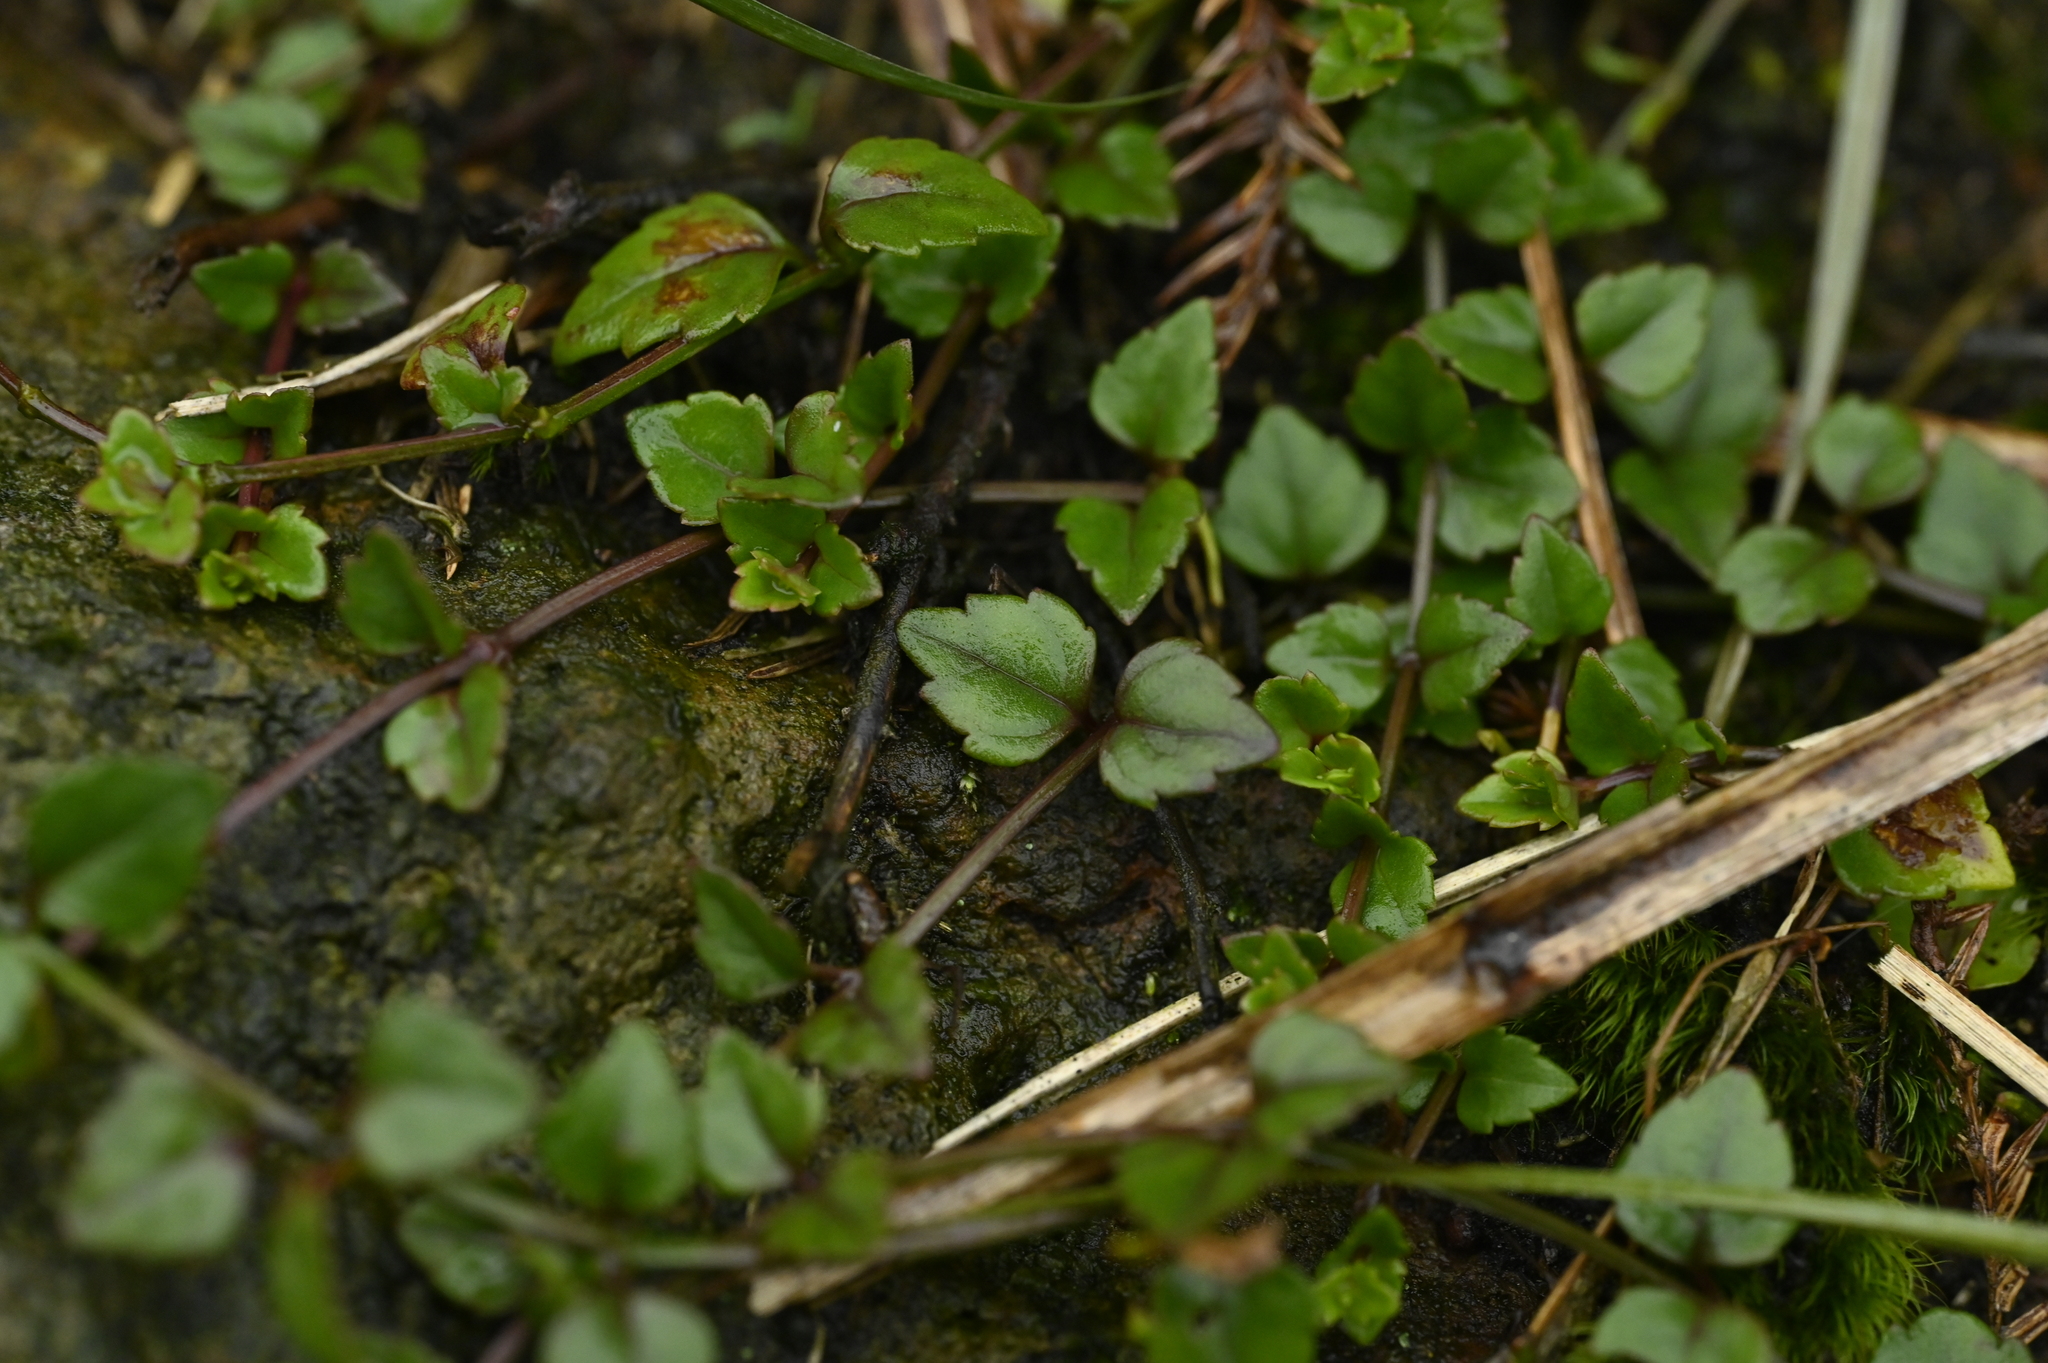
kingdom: Plantae
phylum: Tracheophyta
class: Magnoliopsida
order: Lamiales
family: Linderniaceae
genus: Torenia
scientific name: Torenia concolor
